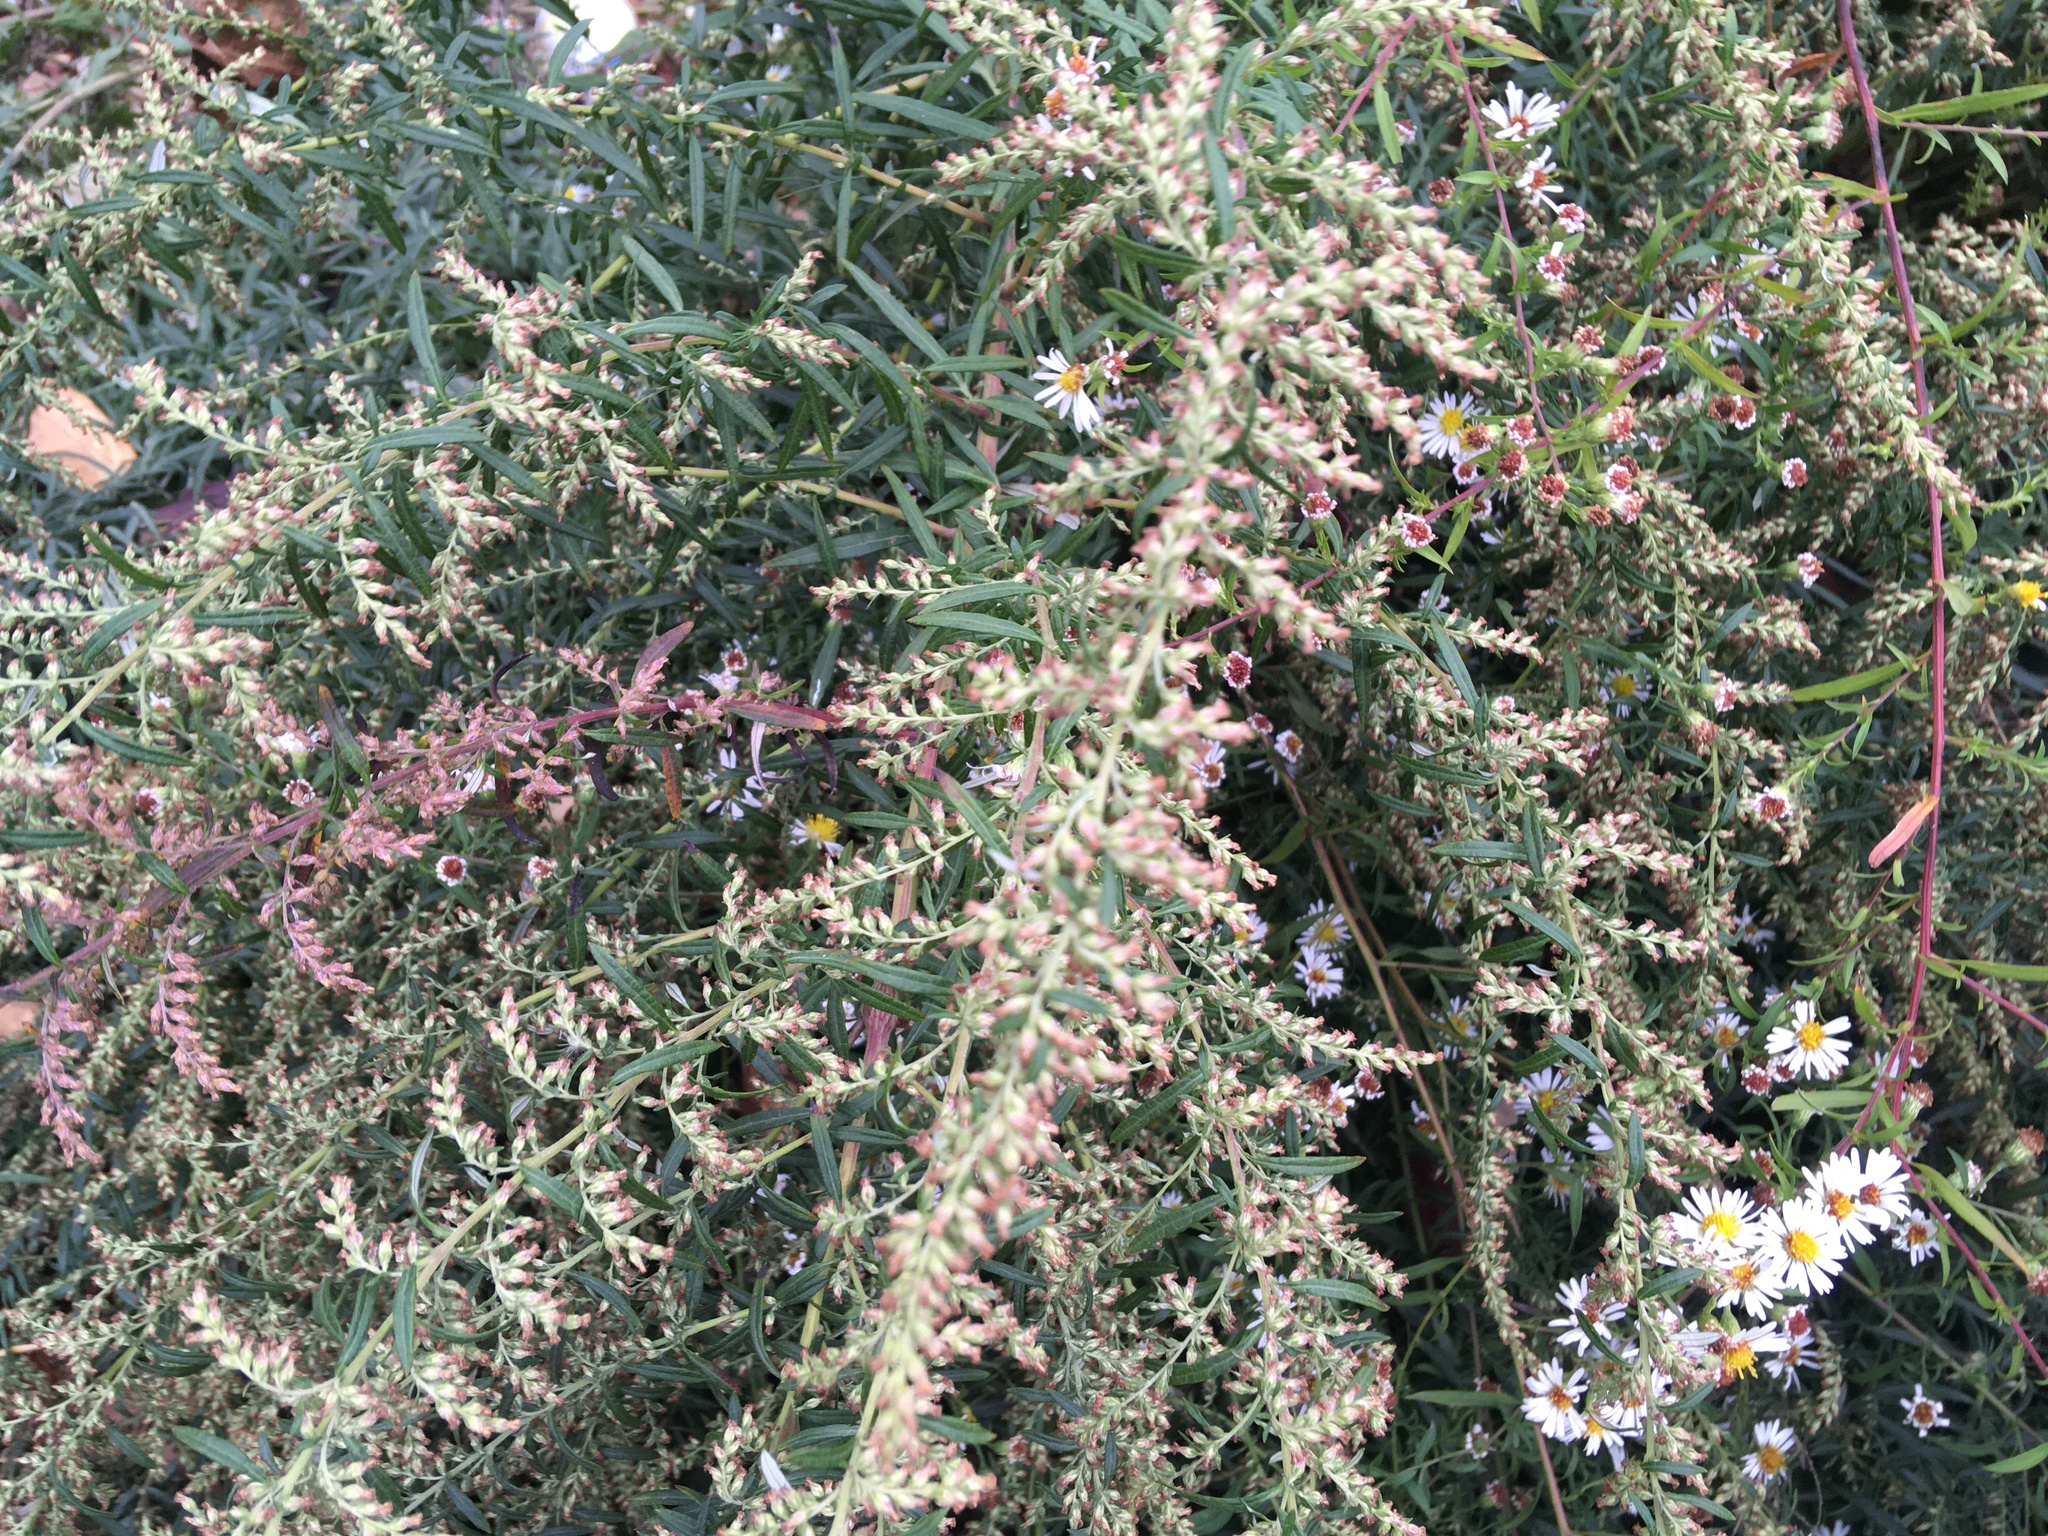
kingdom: Plantae
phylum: Tracheophyta
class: Magnoliopsida
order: Asterales
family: Asteraceae
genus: Artemisia
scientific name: Artemisia vulgaris
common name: Mugwort
